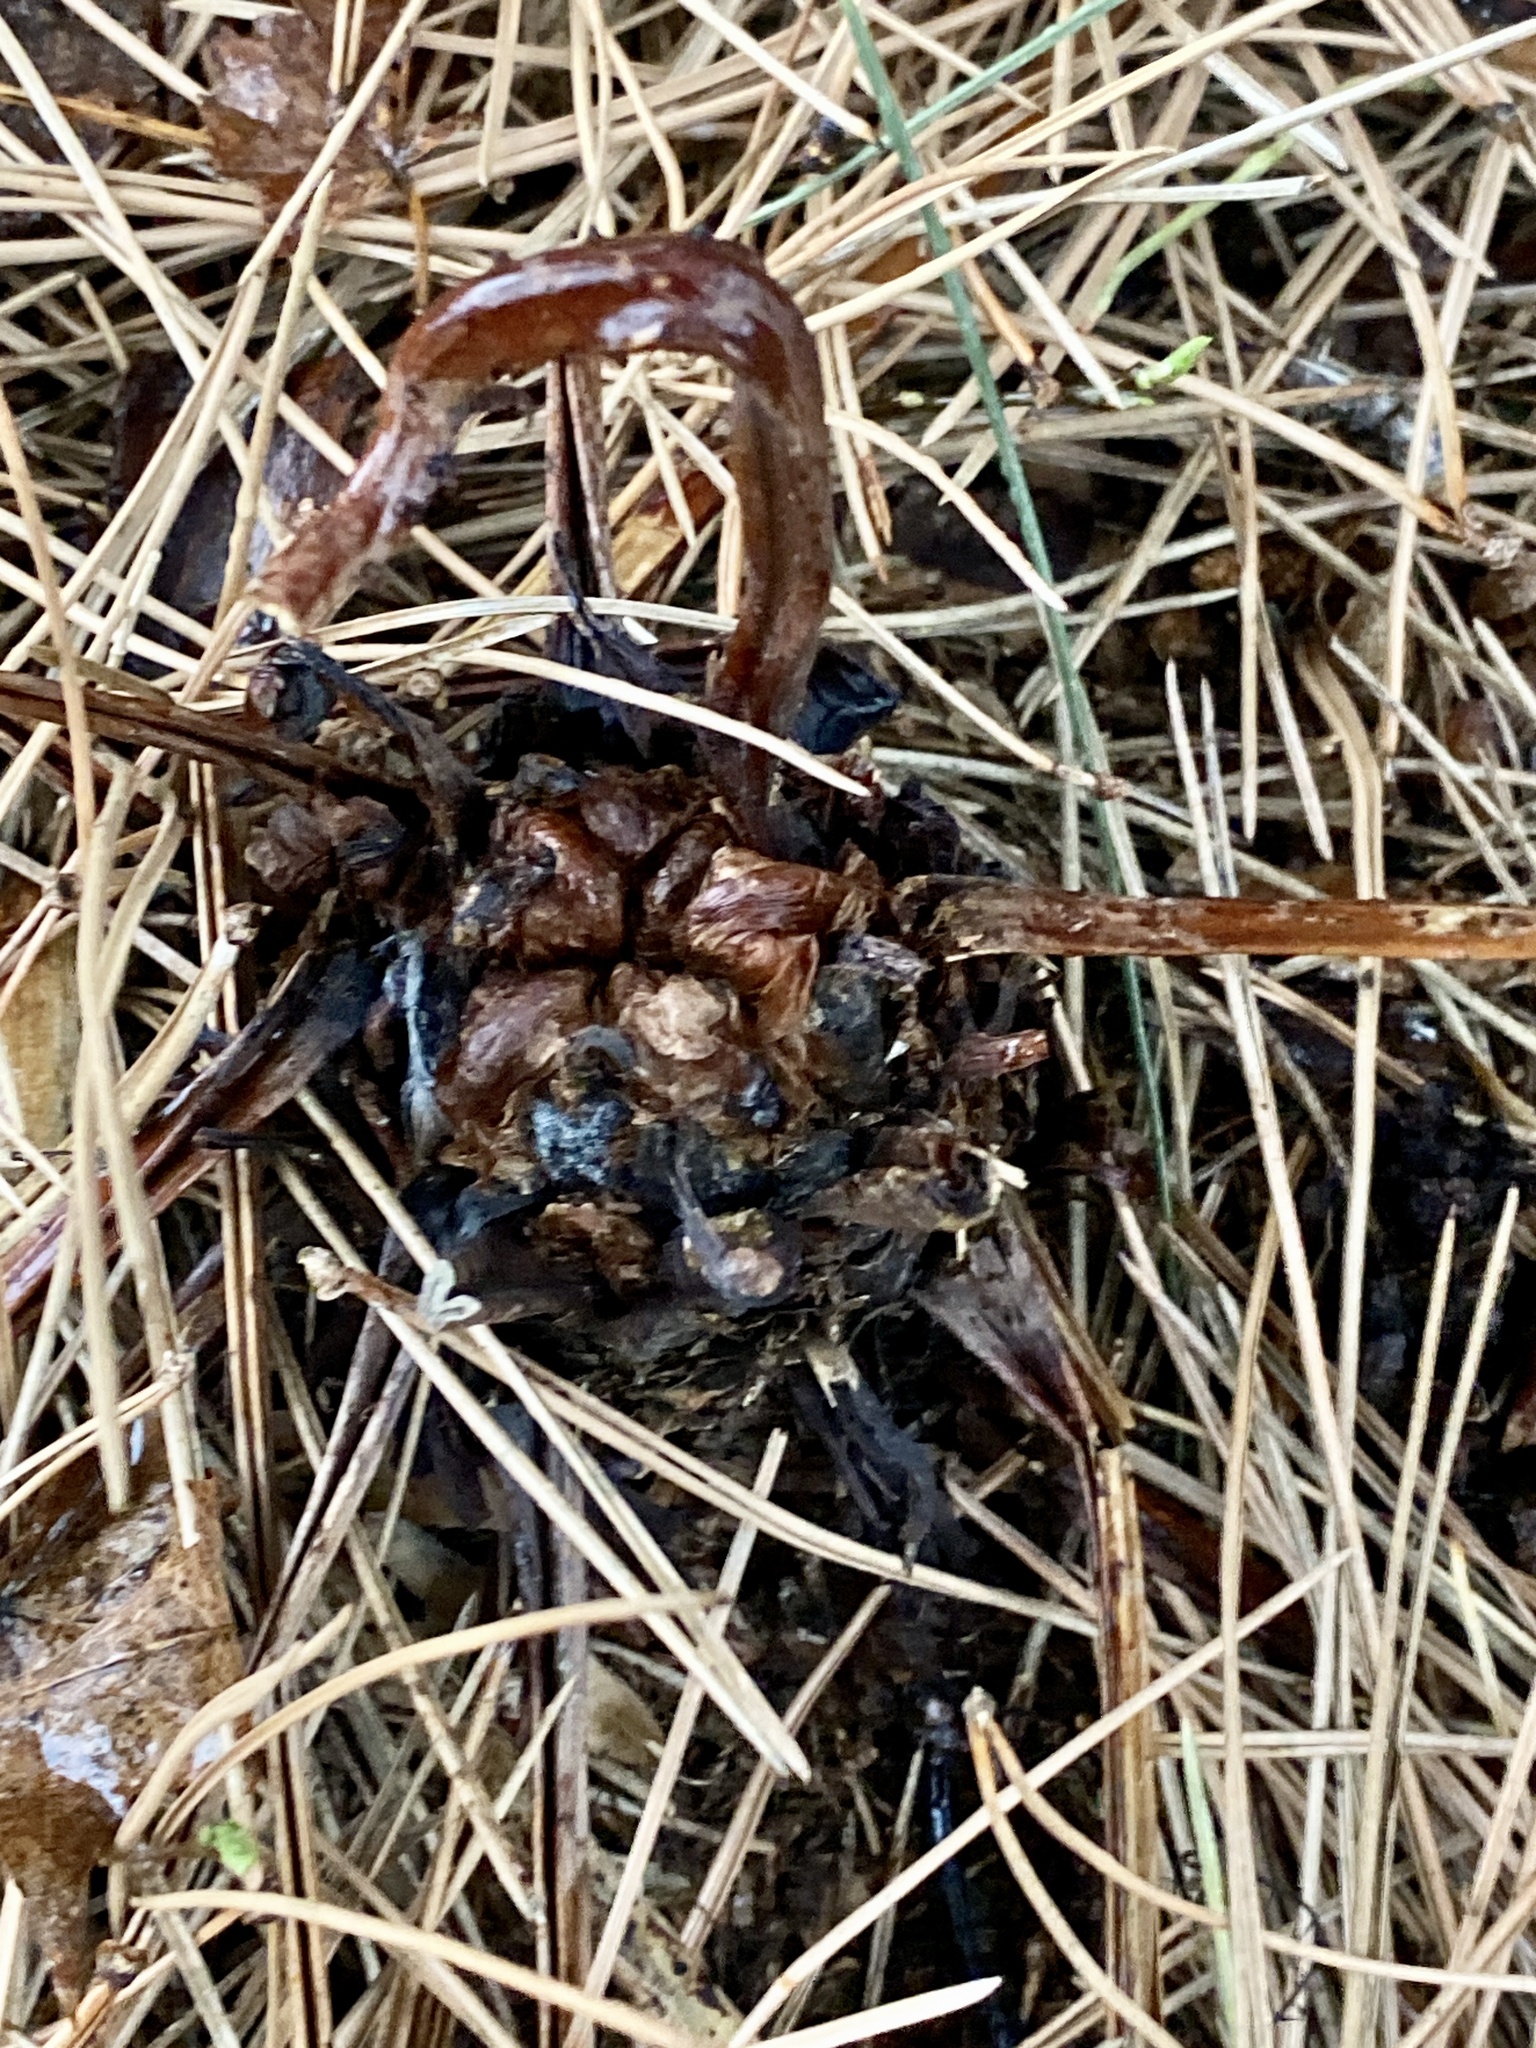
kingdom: Plantae
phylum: Tracheophyta
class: Polypodiopsida
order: Polypodiales
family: Onocleaceae
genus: Matteuccia
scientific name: Matteuccia struthiopteris
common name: Ostrich fern
